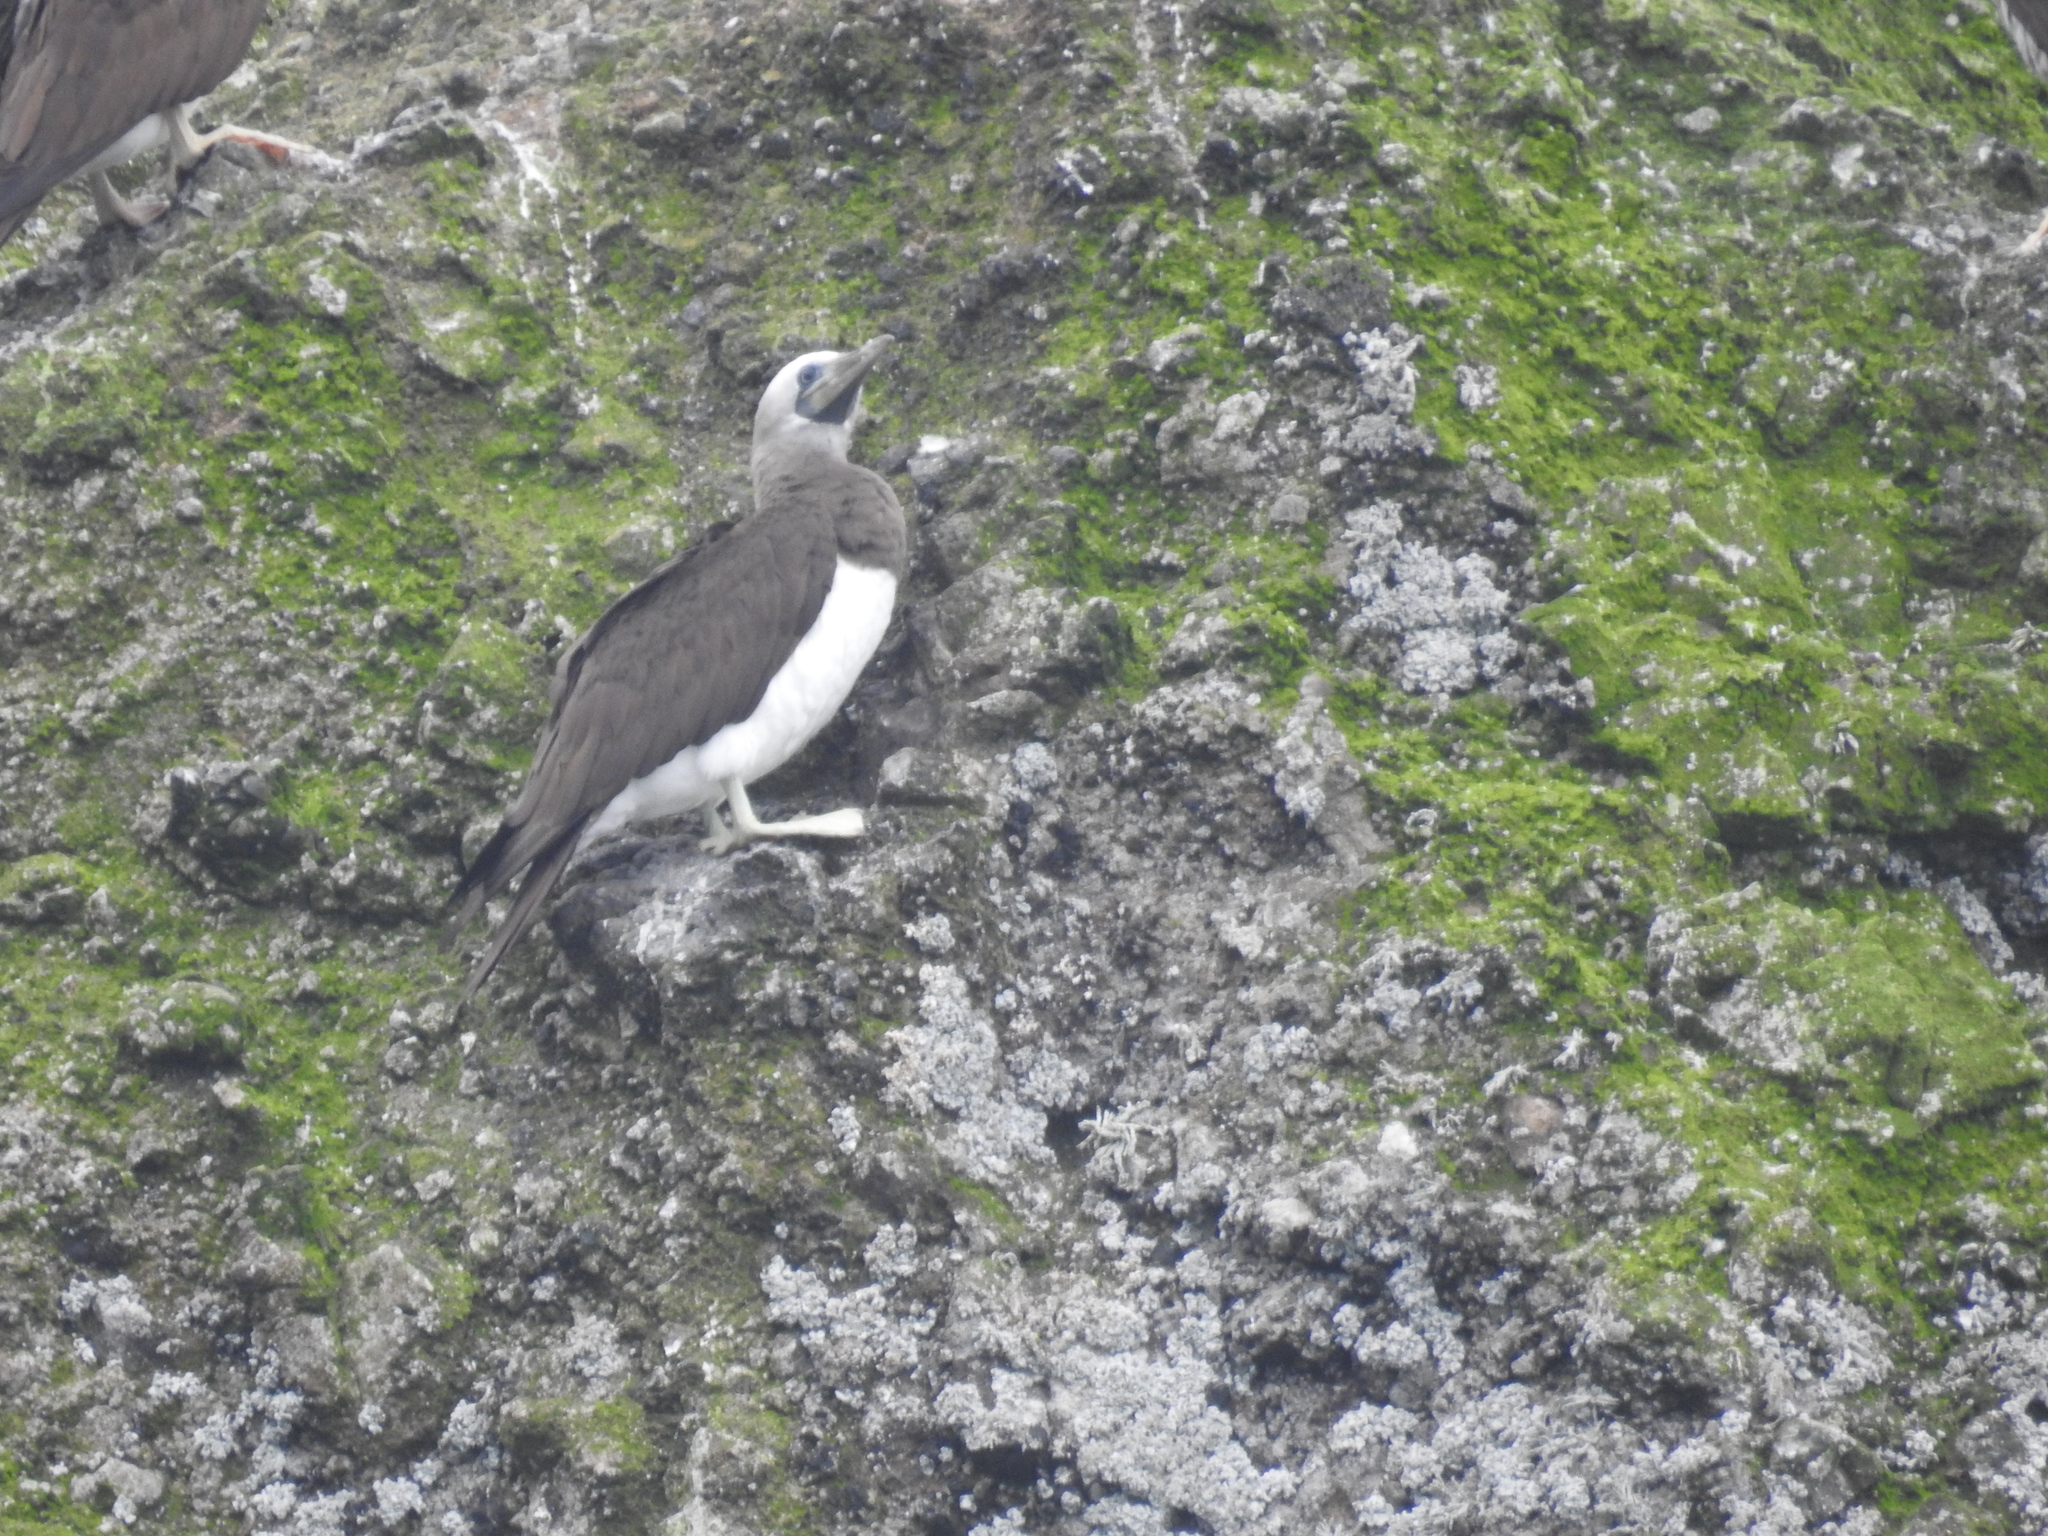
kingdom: Animalia
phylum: Chordata
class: Aves
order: Suliformes
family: Sulidae
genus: Sula
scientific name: Sula leucogaster
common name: Brown booby
